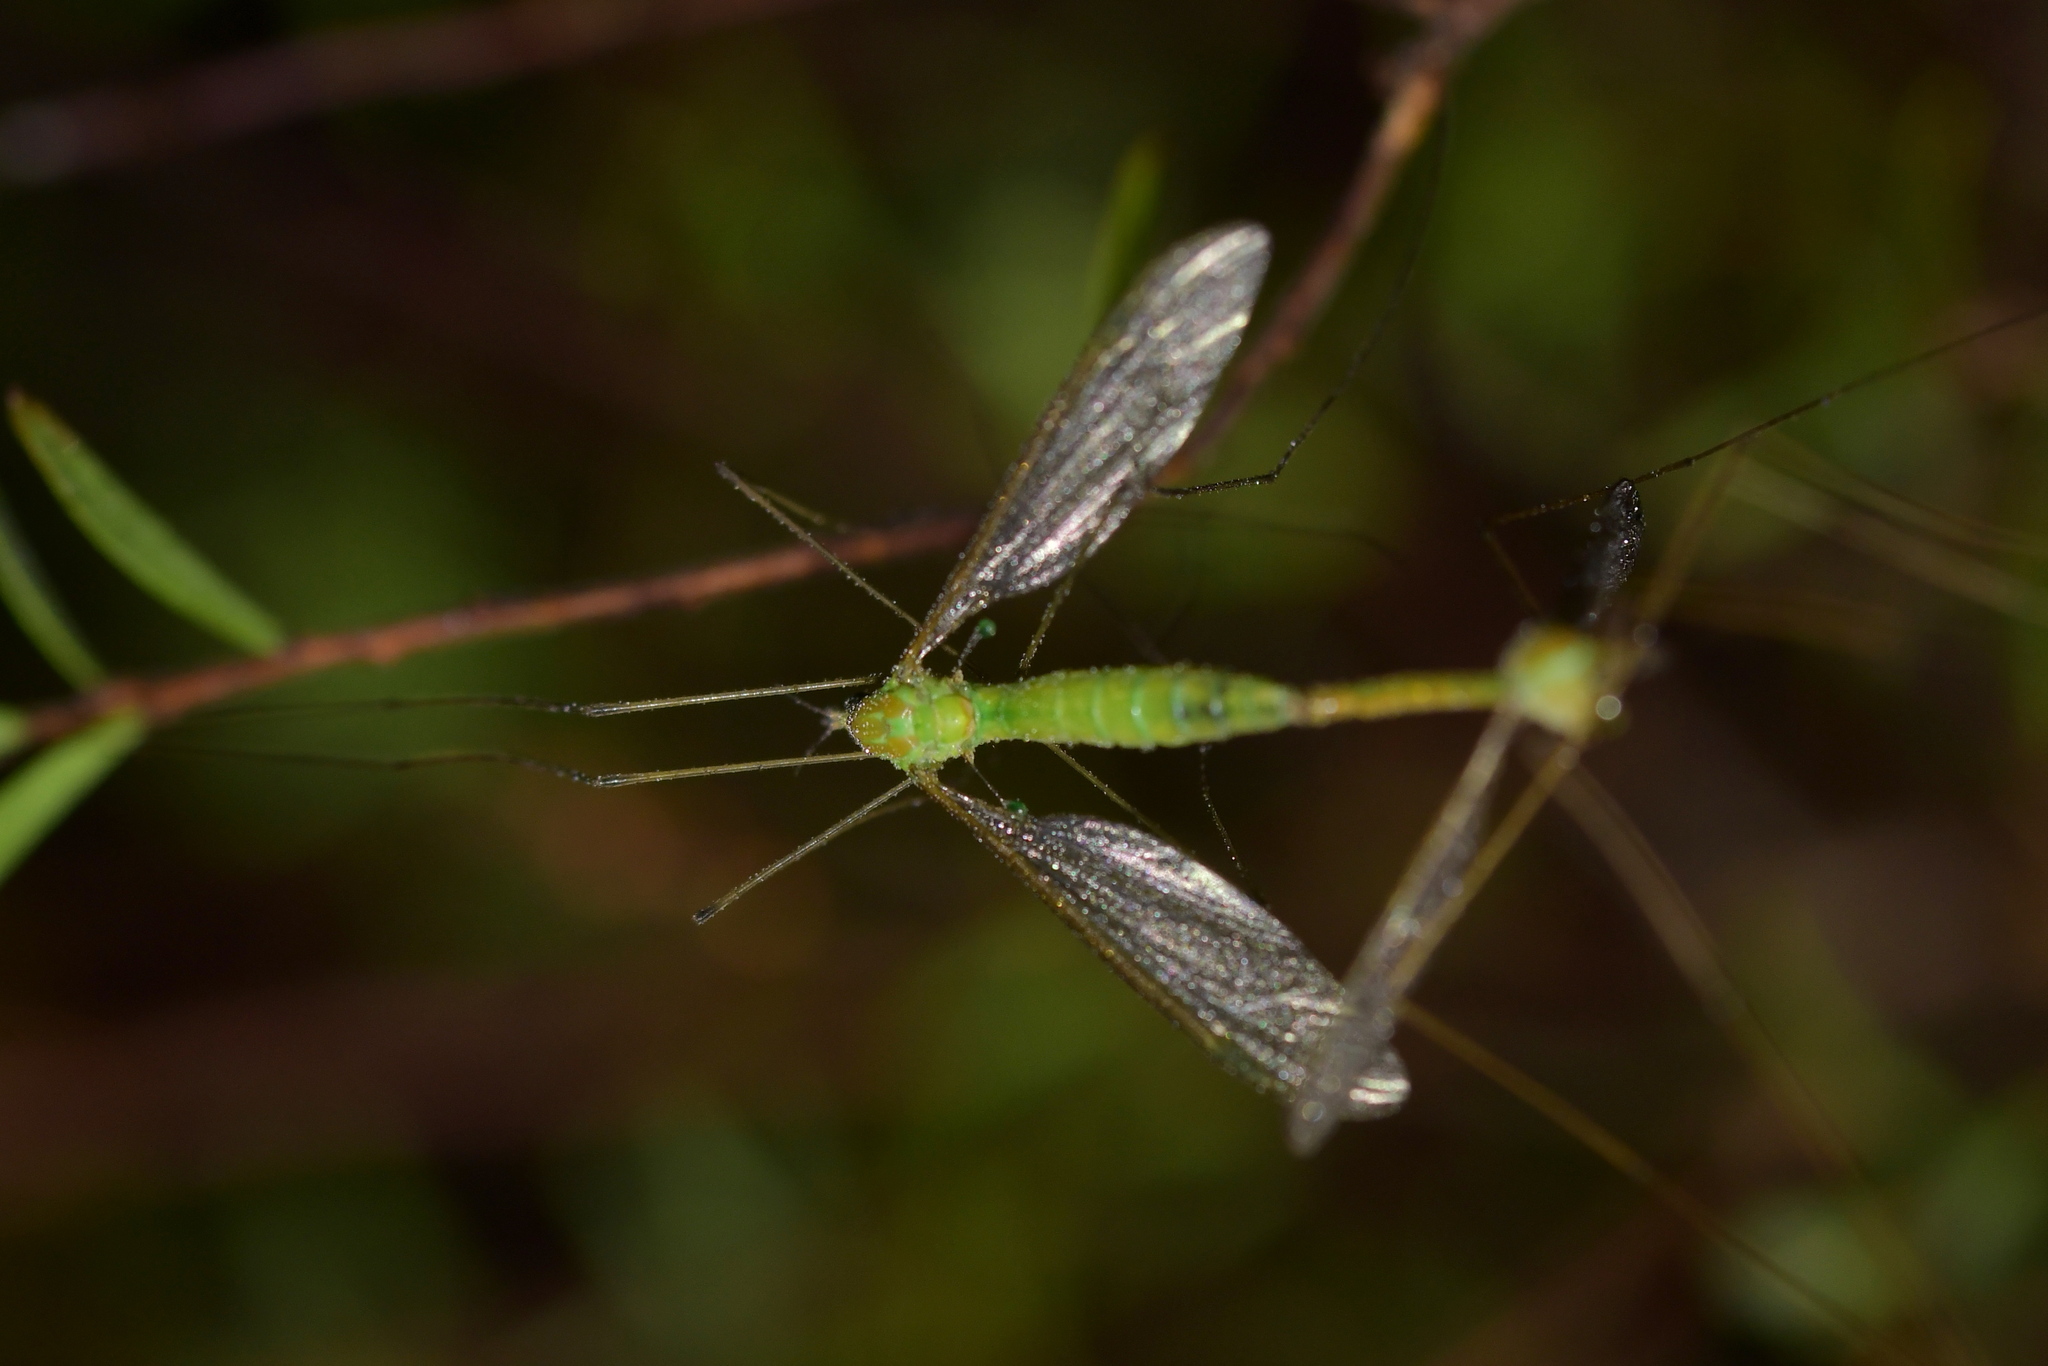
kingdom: Animalia
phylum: Arthropoda
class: Insecta
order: Diptera
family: Tipulidae
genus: Leptotarsus
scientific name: Leptotarsus virescens
